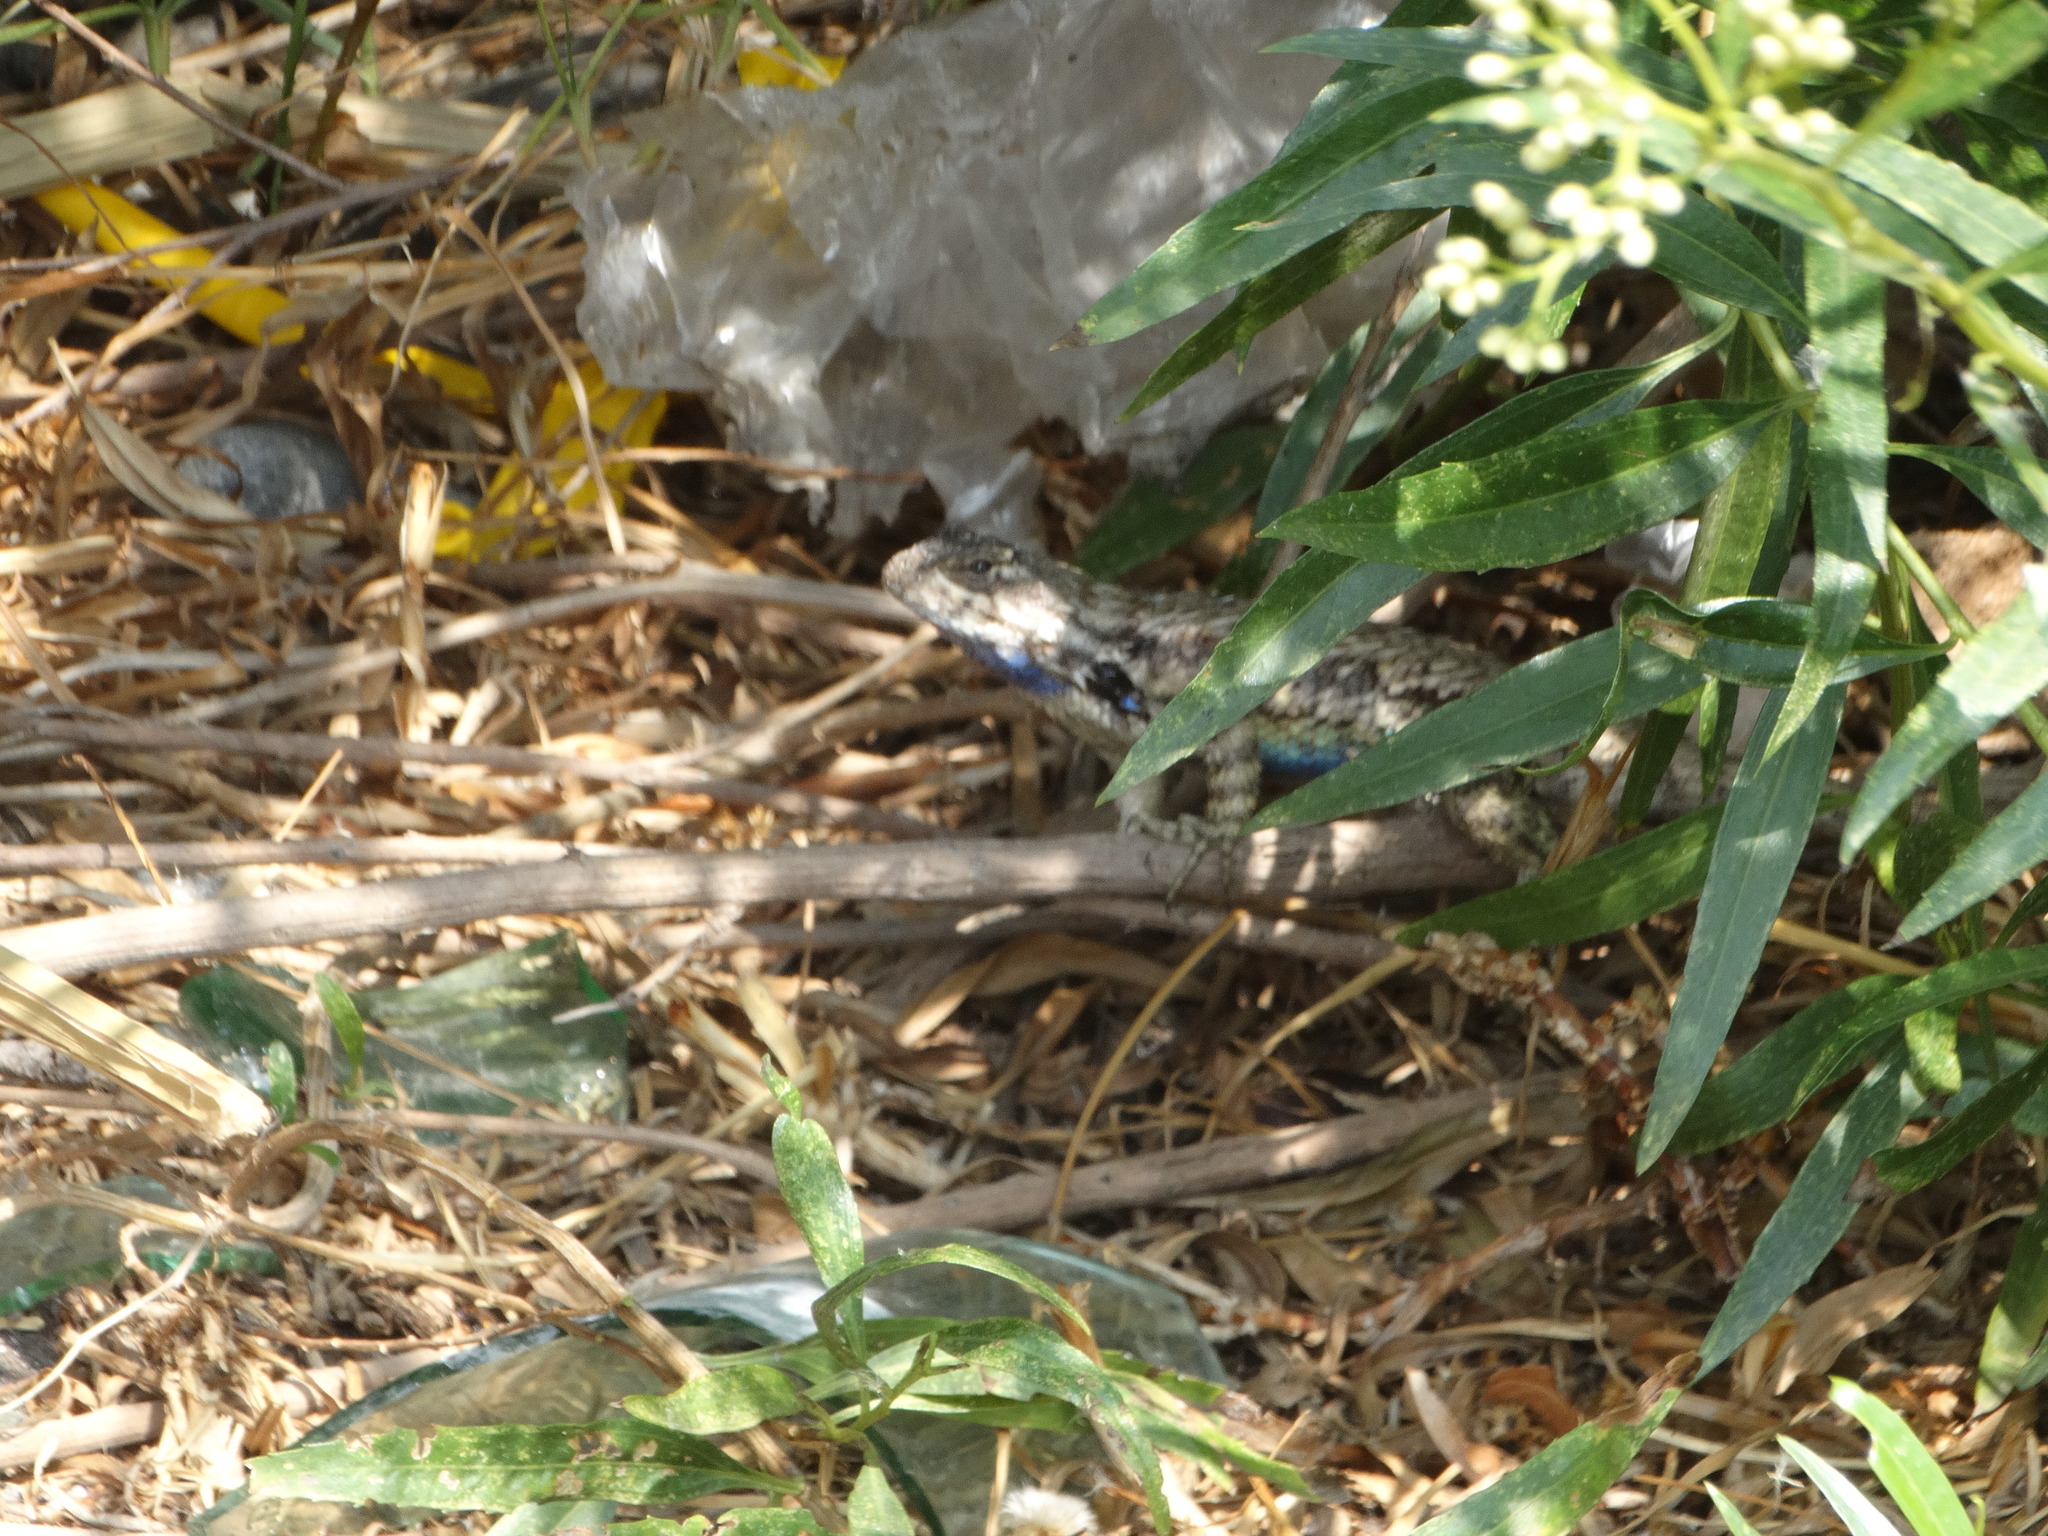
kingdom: Animalia
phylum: Chordata
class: Squamata
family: Phrynosomatidae
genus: Sceloporus
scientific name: Sceloporus spinosus
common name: Blue-spotted spiny lizard [caeruleopunctatus]
